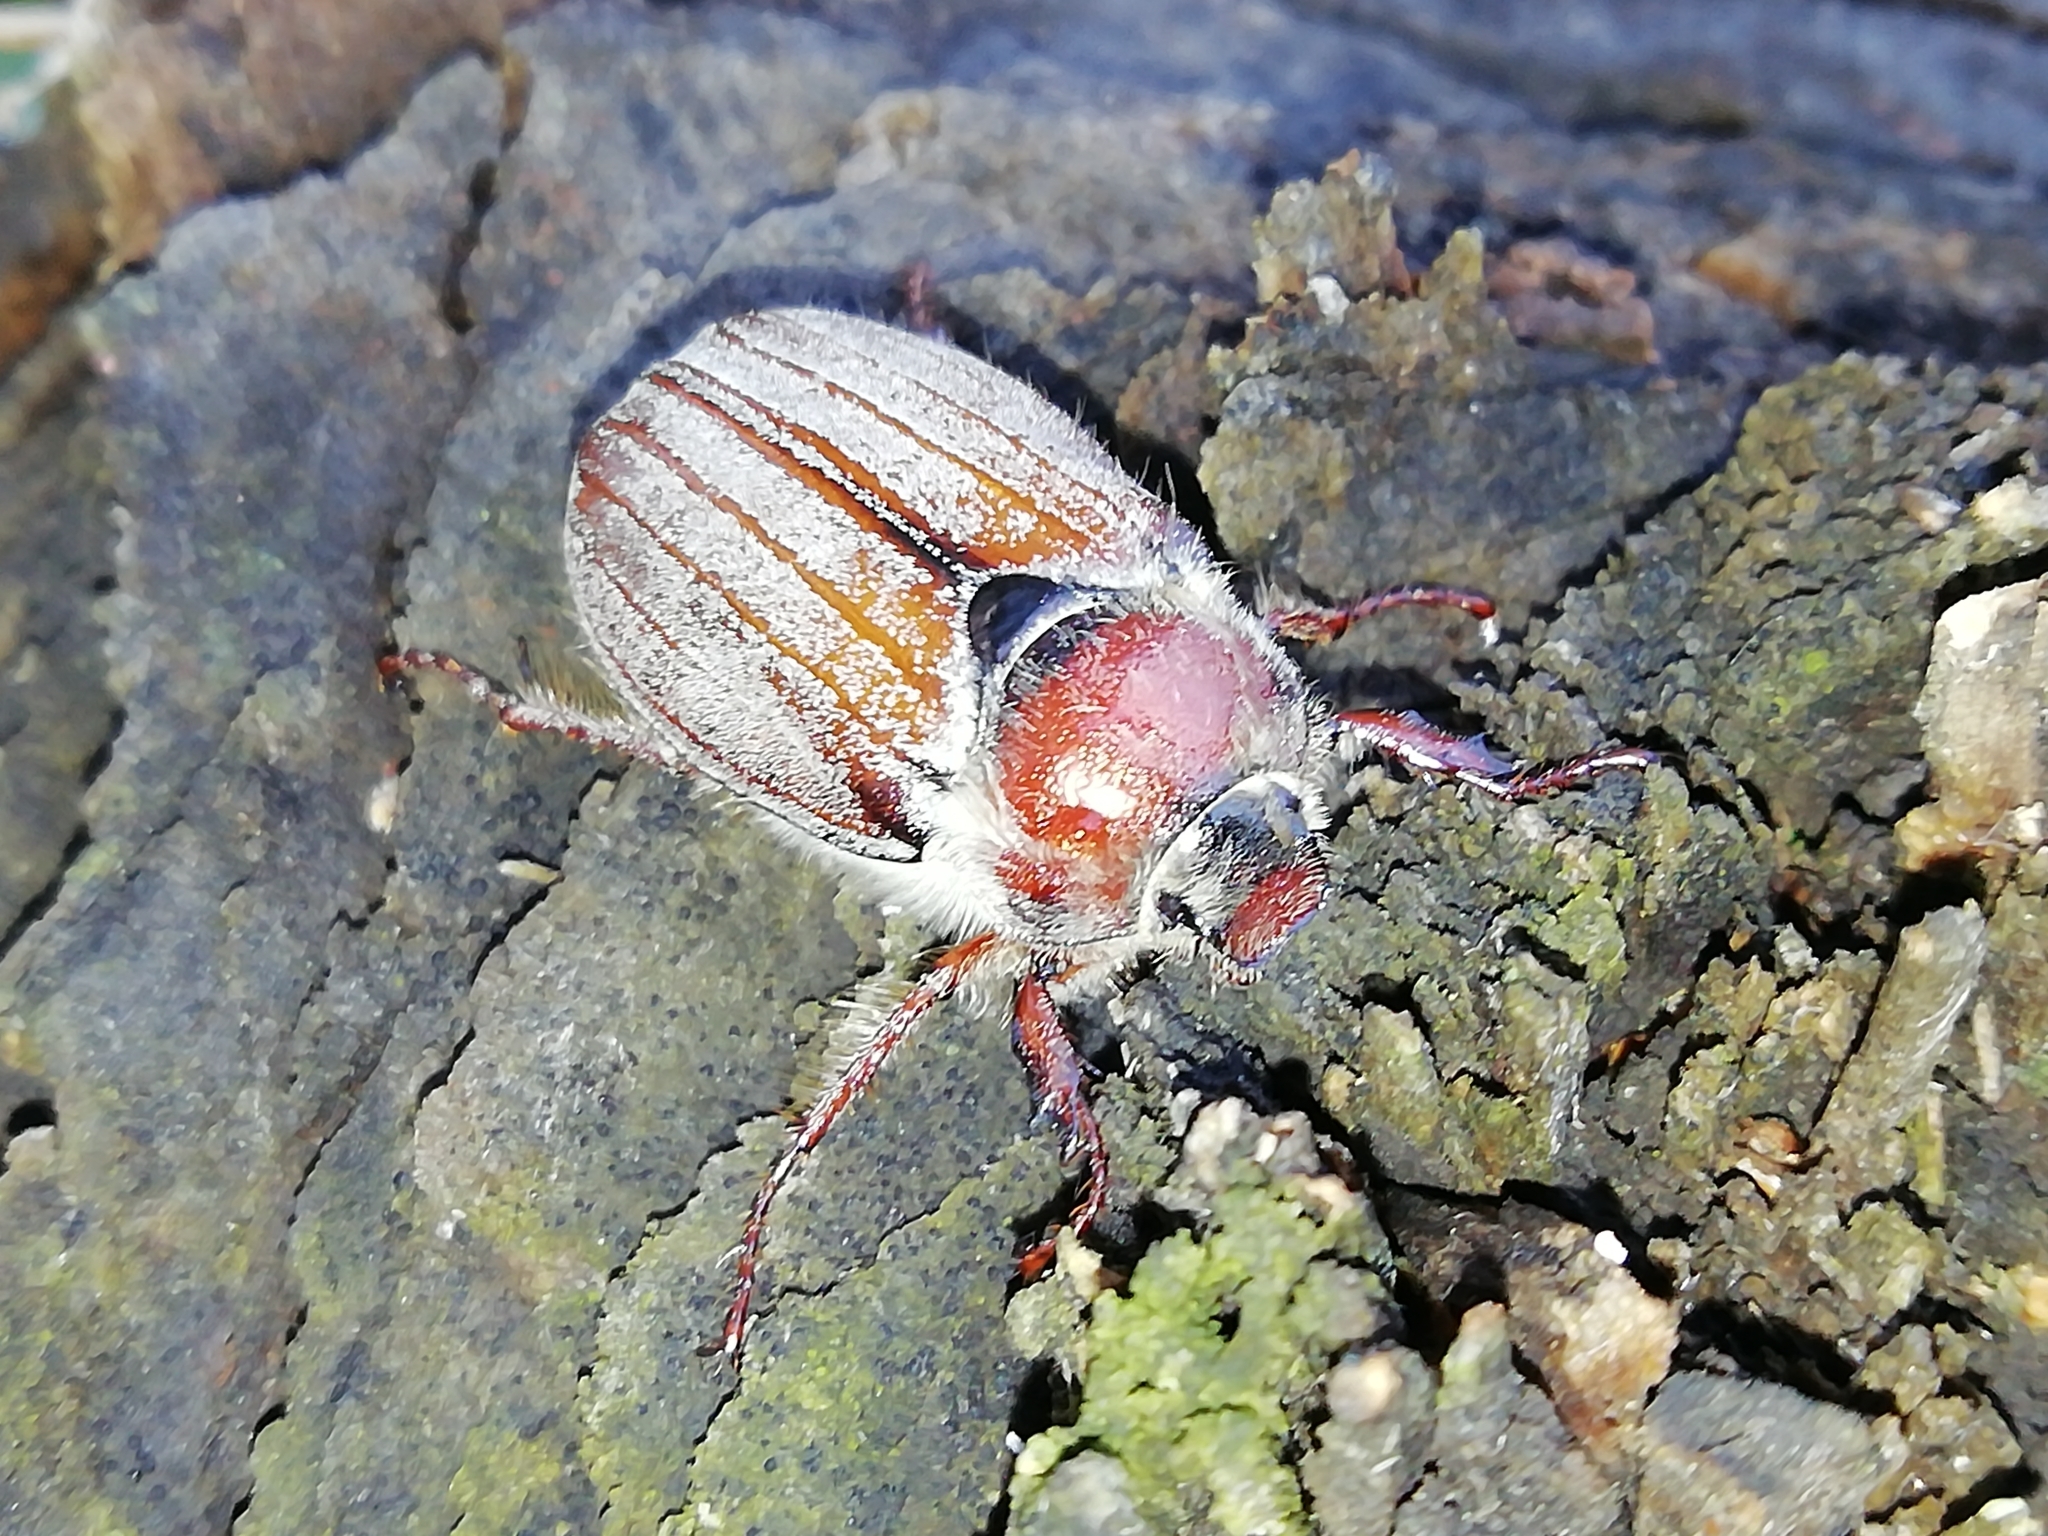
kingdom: Animalia
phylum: Arthropoda
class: Insecta
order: Coleoptera
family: Scarabaeidae
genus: Melolontha
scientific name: Melolontha hippocastani
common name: Chestnut cockchafer
